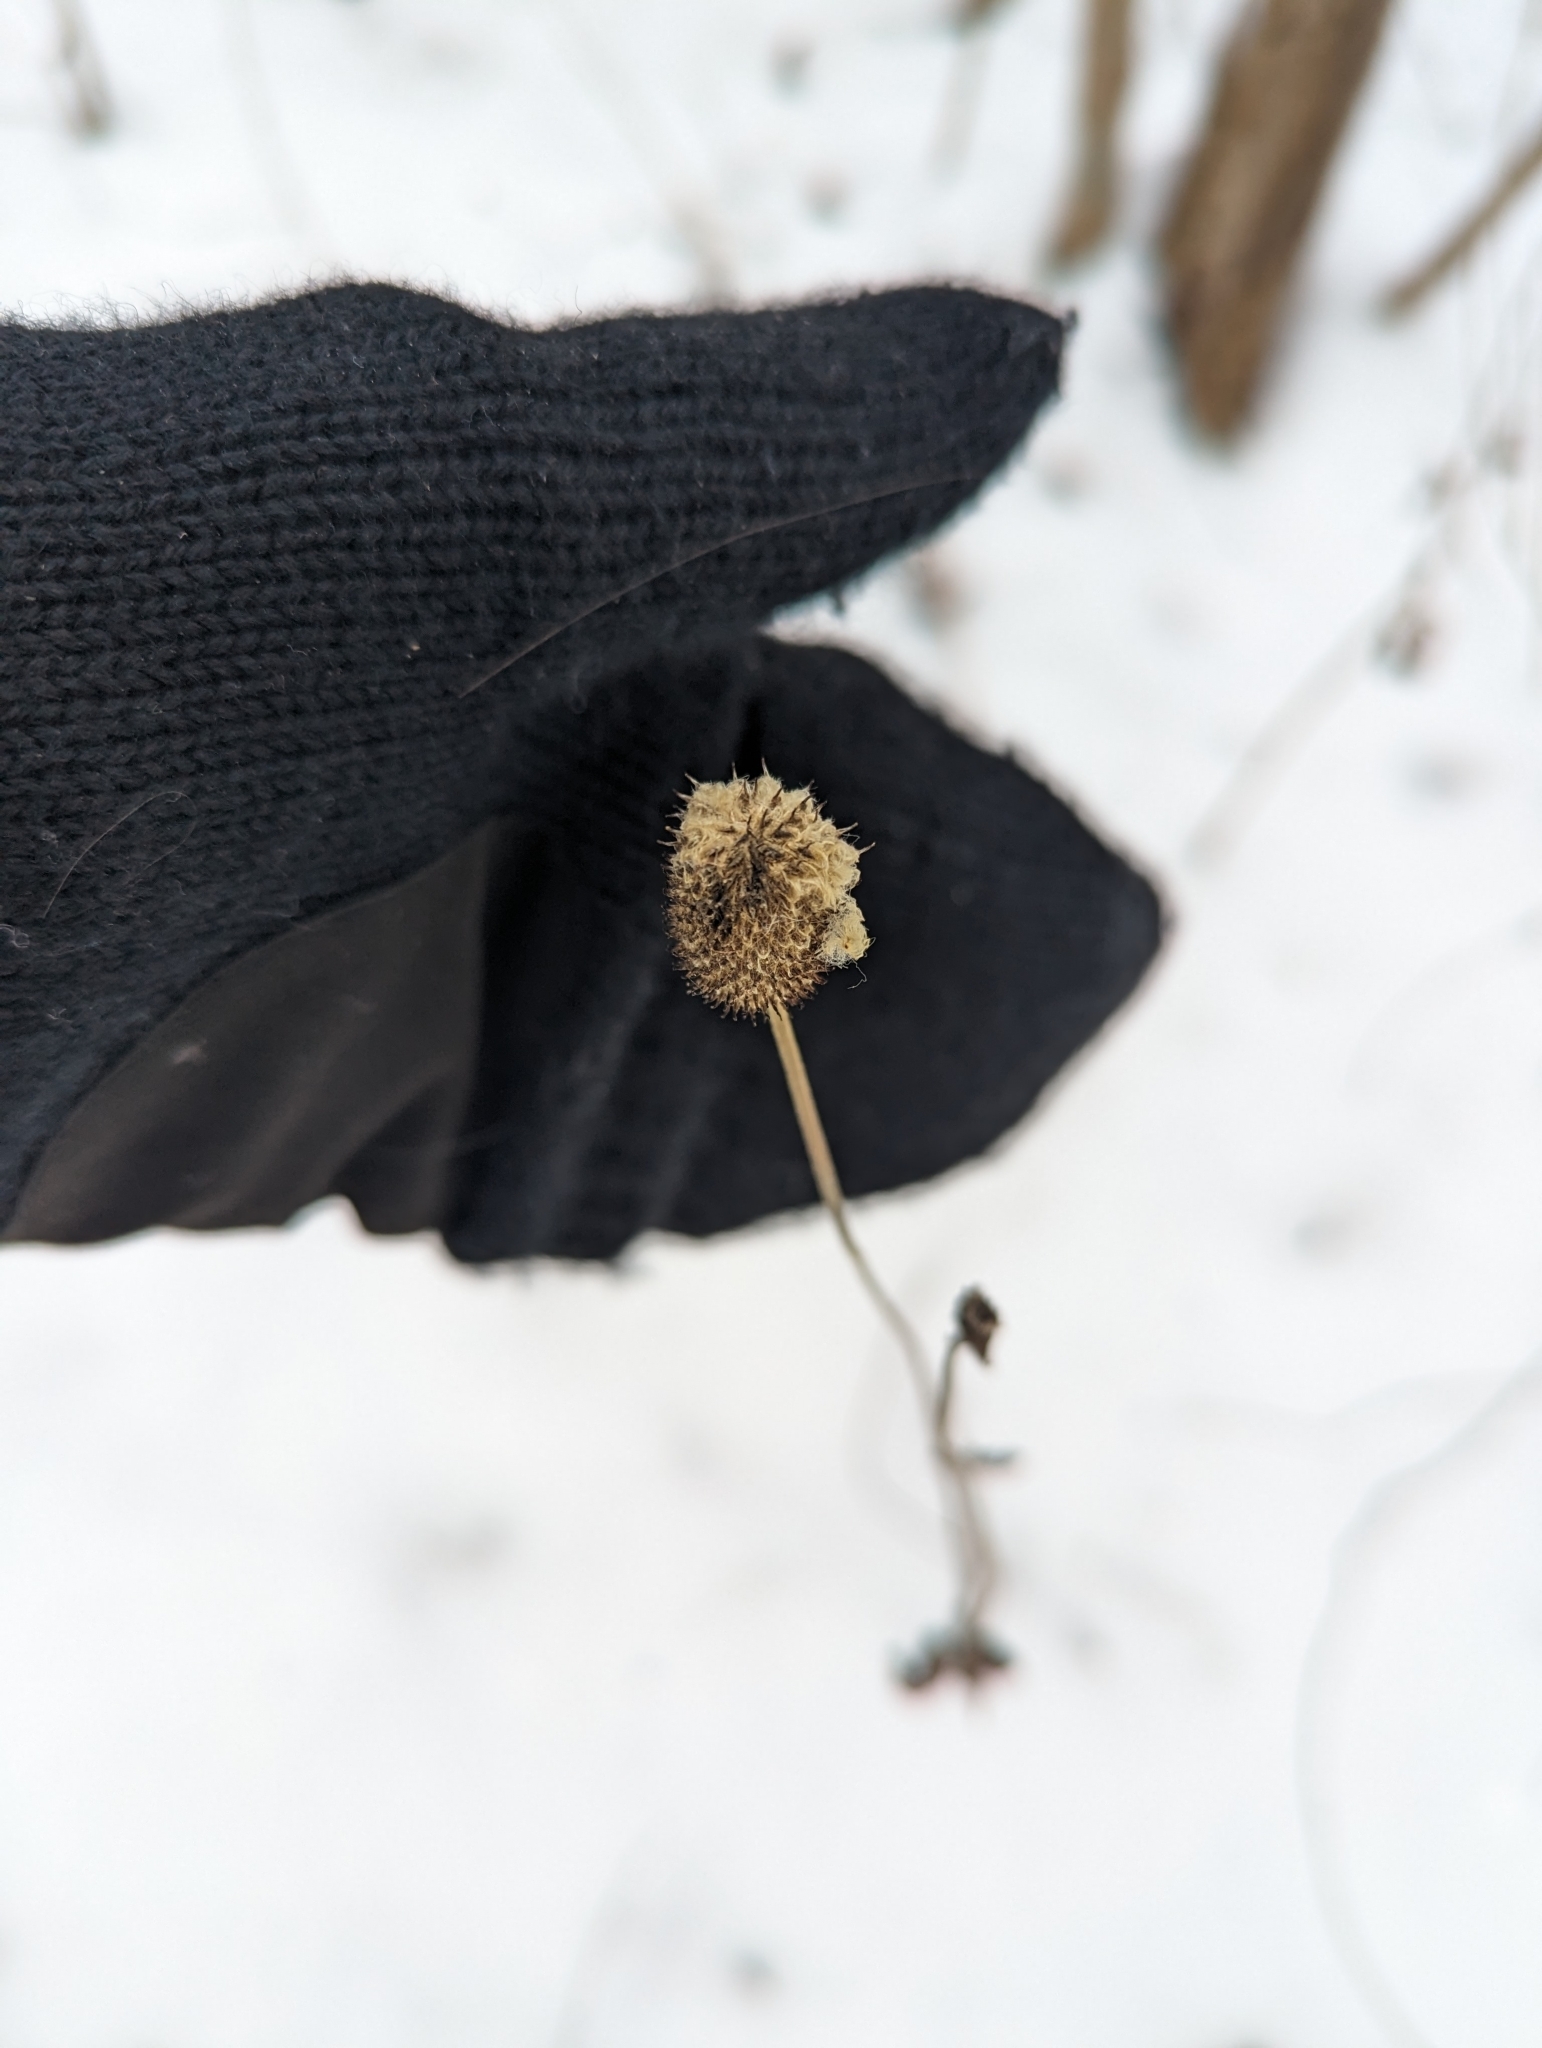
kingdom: Plantae
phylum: Tracheophyta
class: Magnoliopsida
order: Ranunculales
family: Ranunculaceae
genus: Anemone
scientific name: Anemone virginiana
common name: Tall anemone
